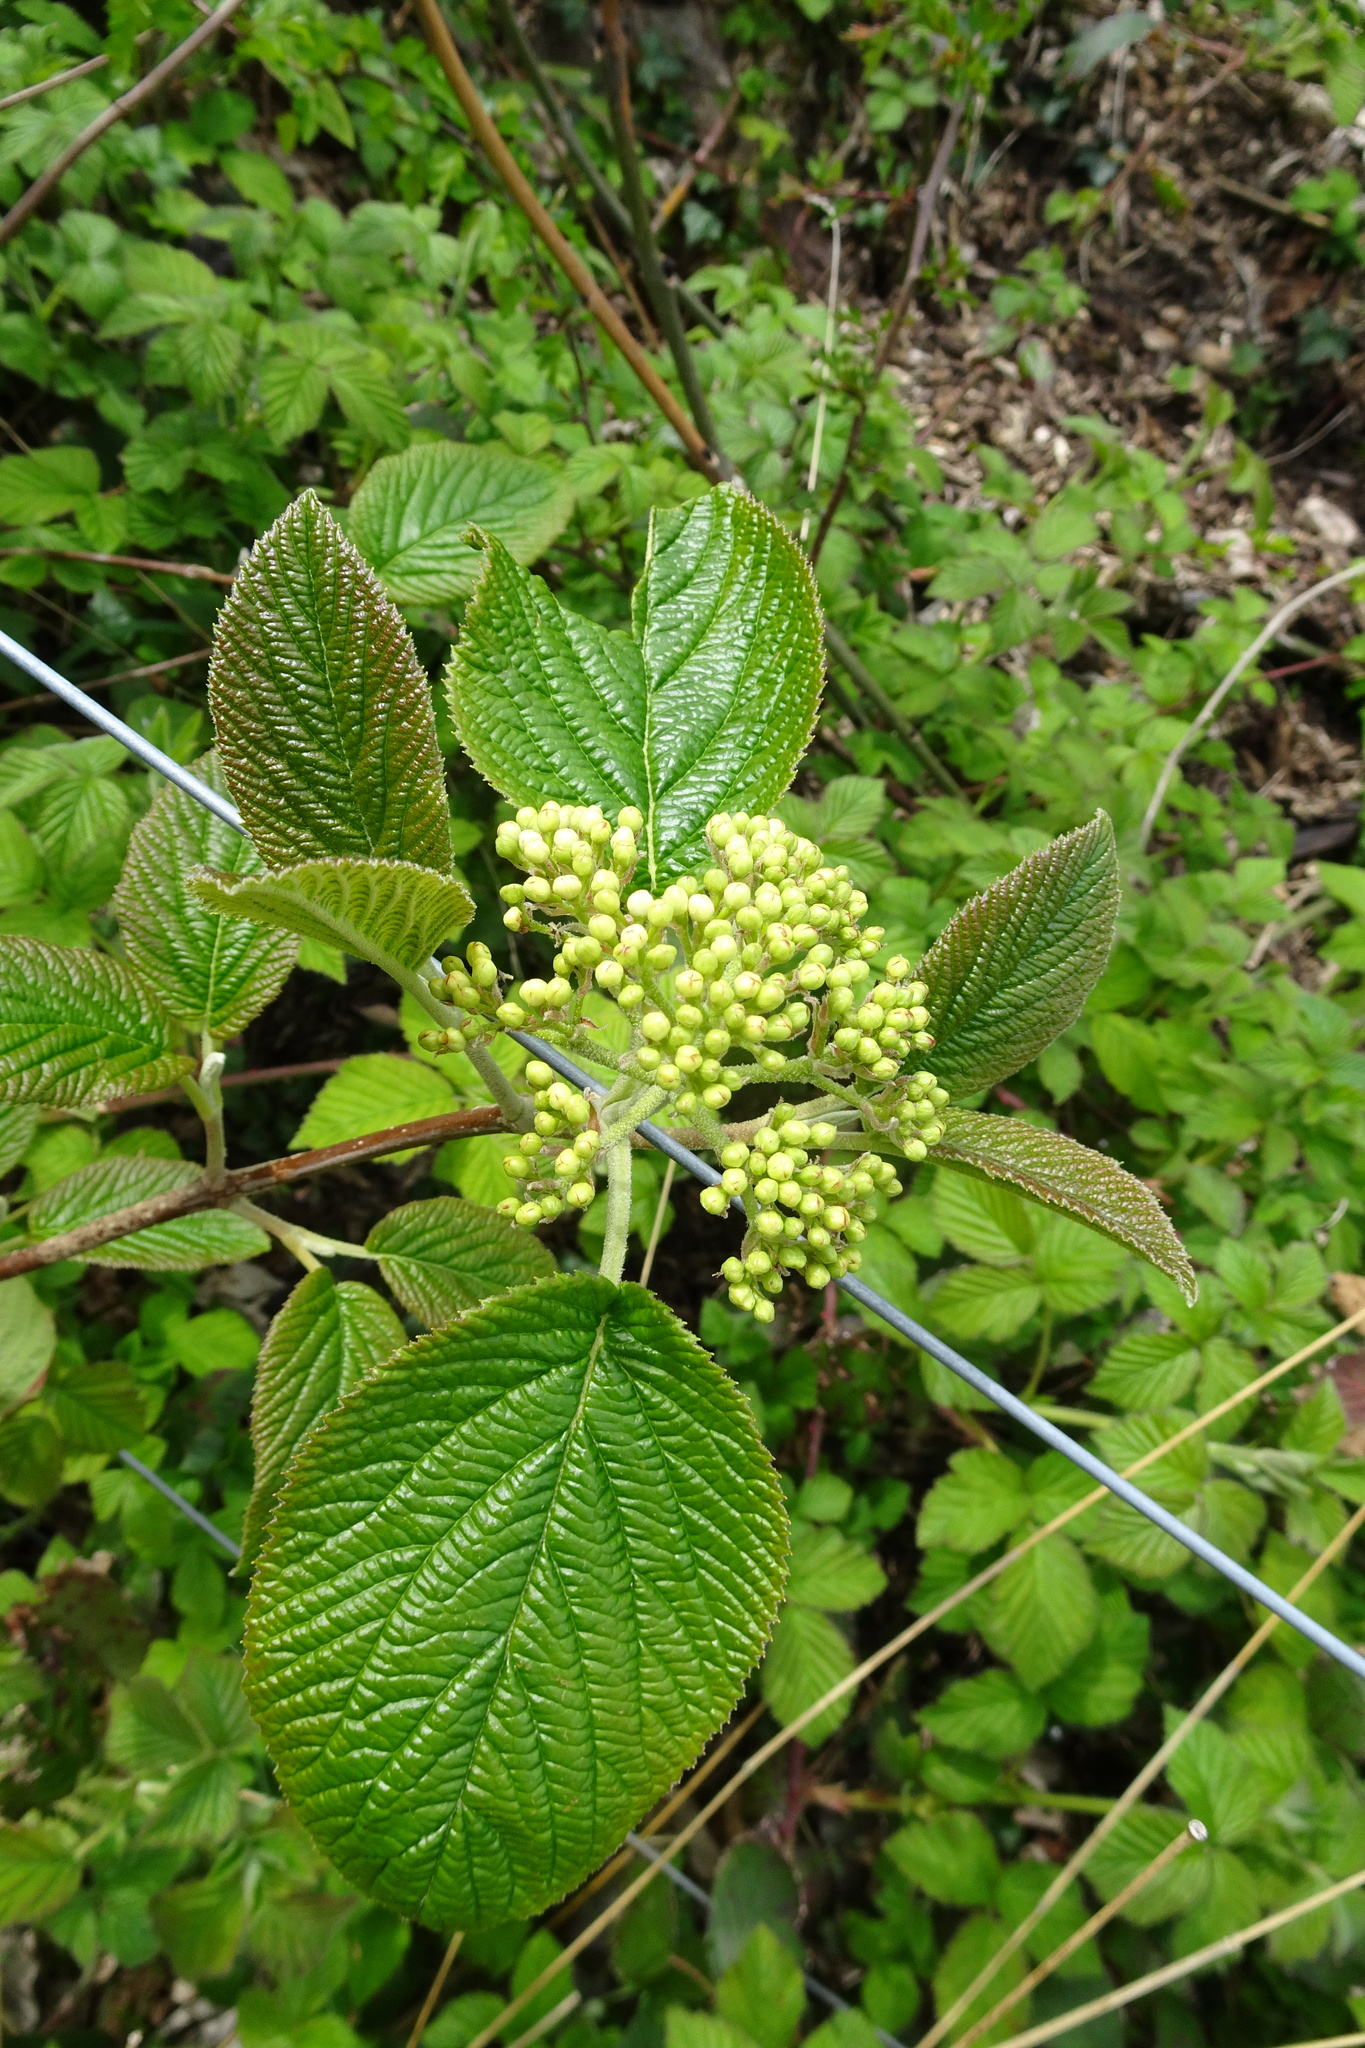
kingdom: Plantae
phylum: Tracheophyta
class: Magnoliopsida
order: Dipsacales
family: Viburnaceae
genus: Viburnum
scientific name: Viburnum lantana
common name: Wayfaring tree
